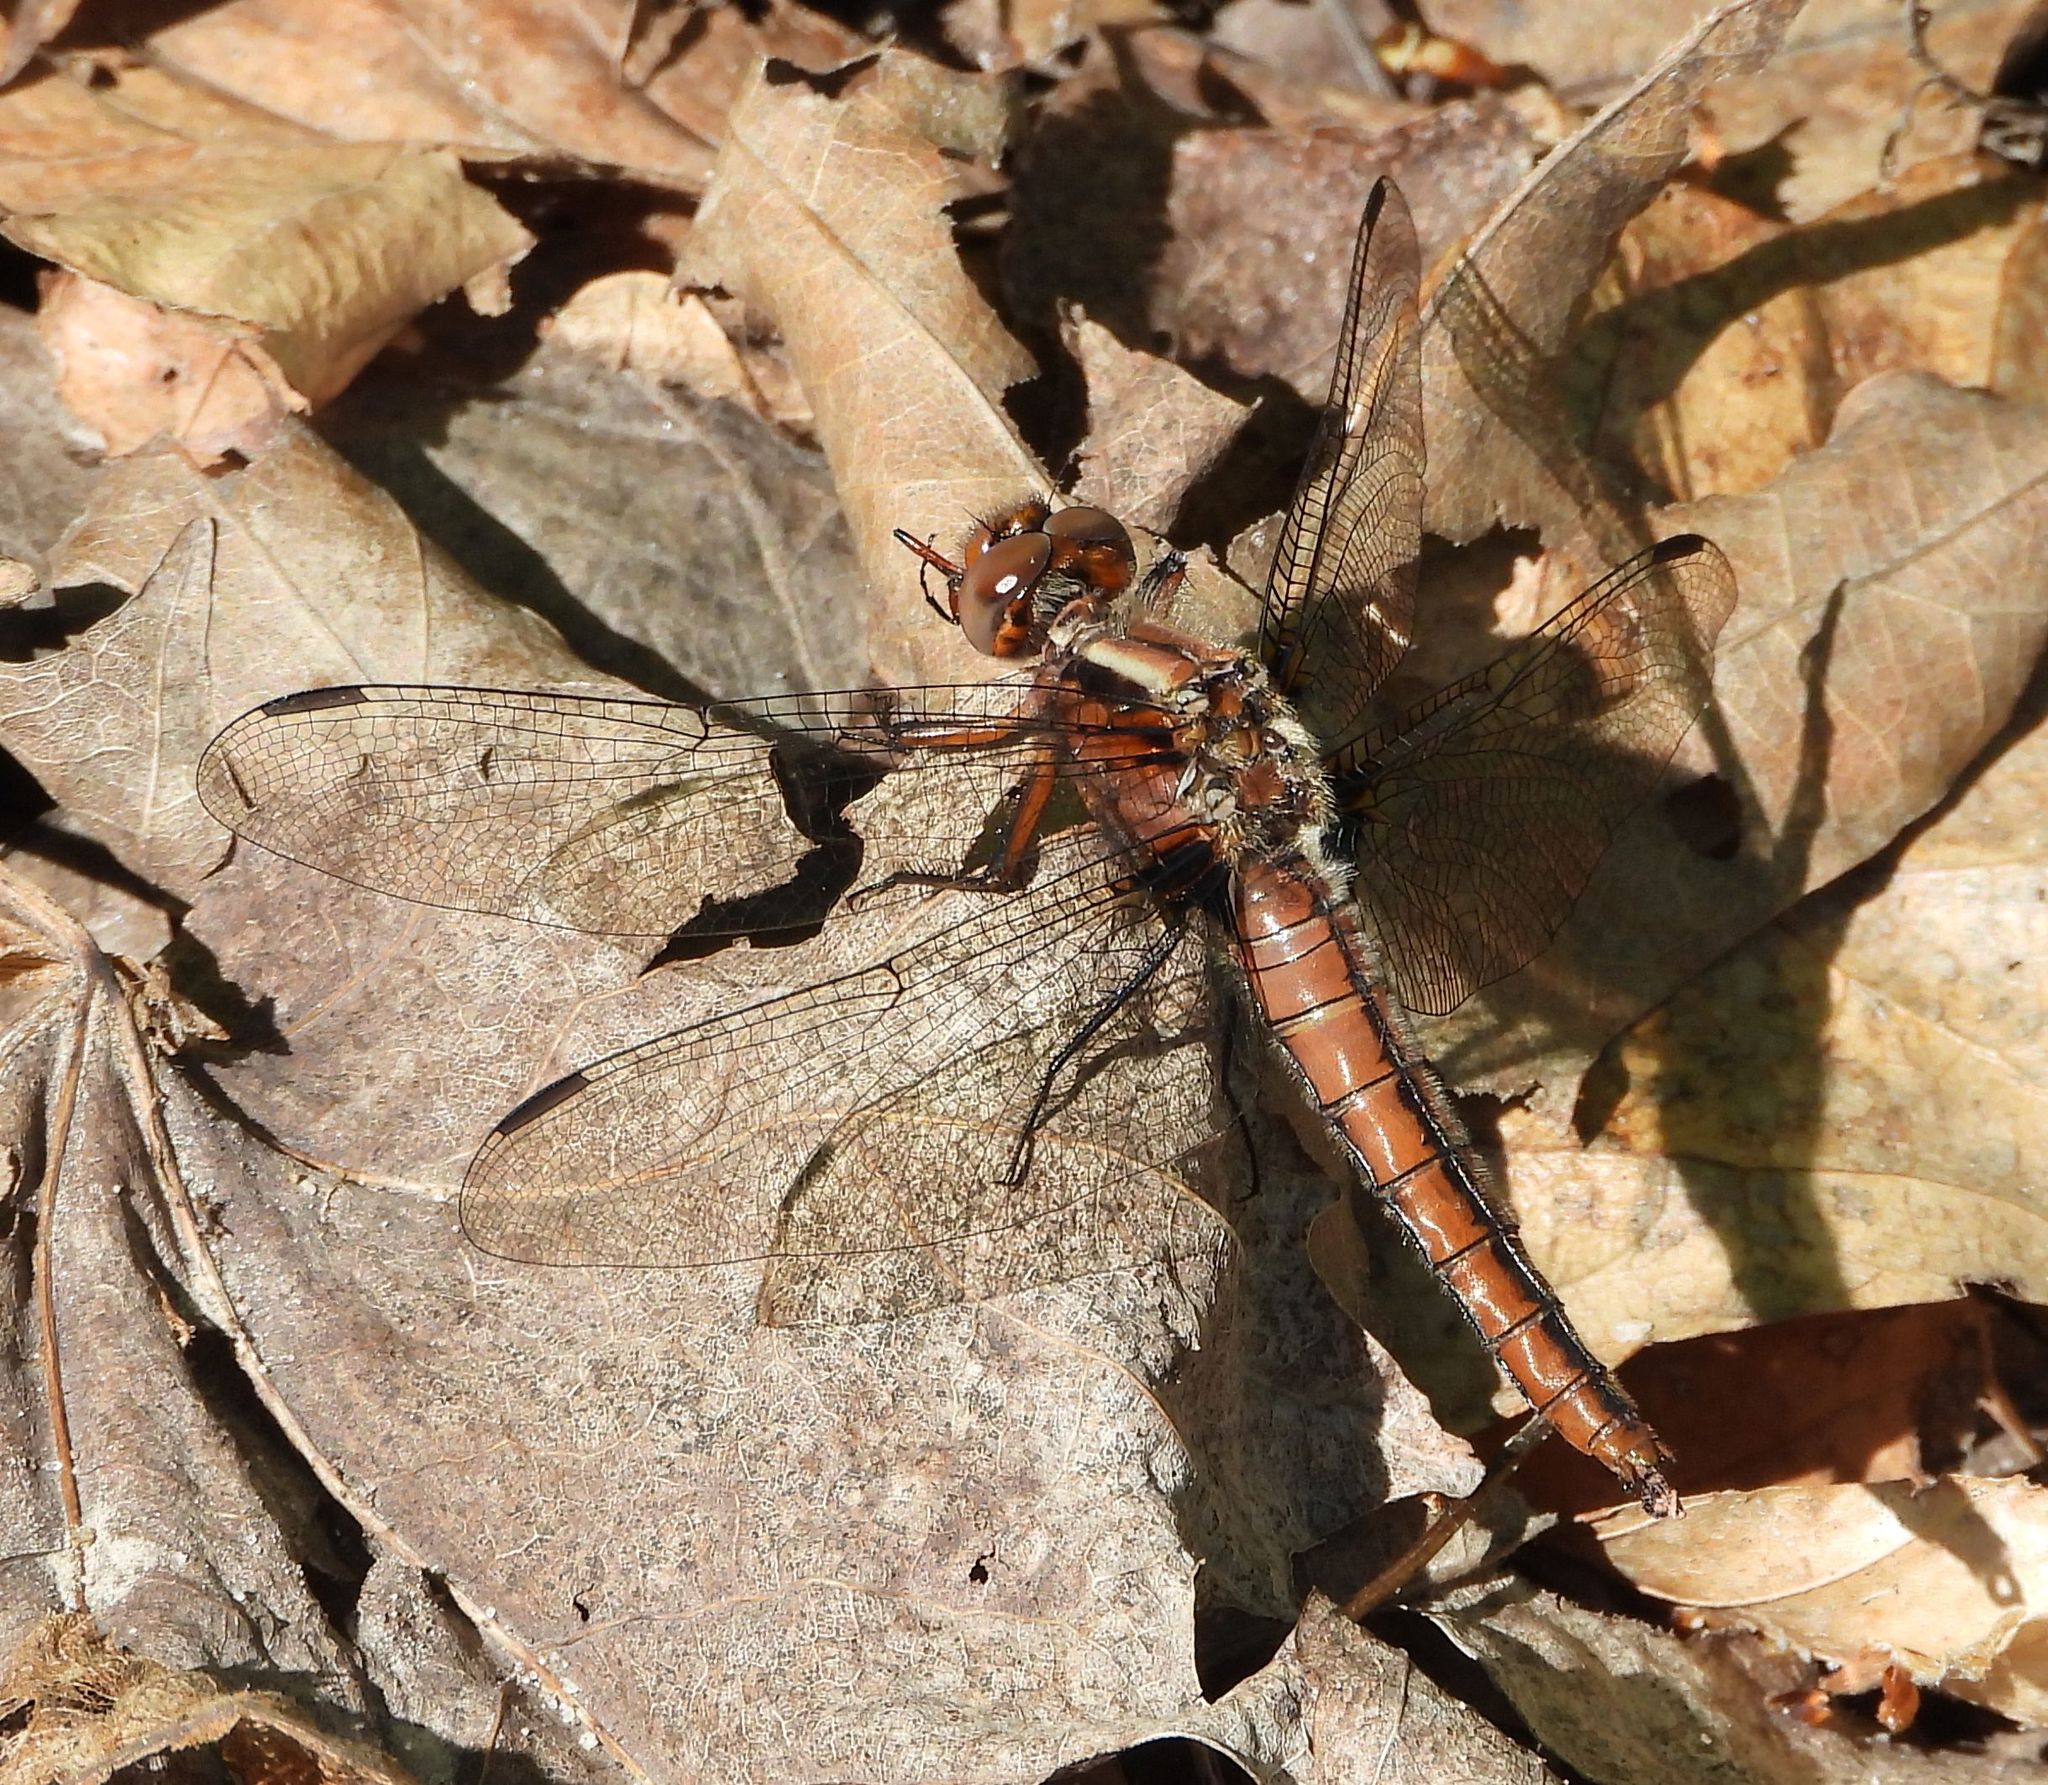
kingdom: Animalia
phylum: Arthropoda
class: Insecta
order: Odonata
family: Libellulidae
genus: Ladona
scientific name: Ladona julia
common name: Chalk-fronted corporal
